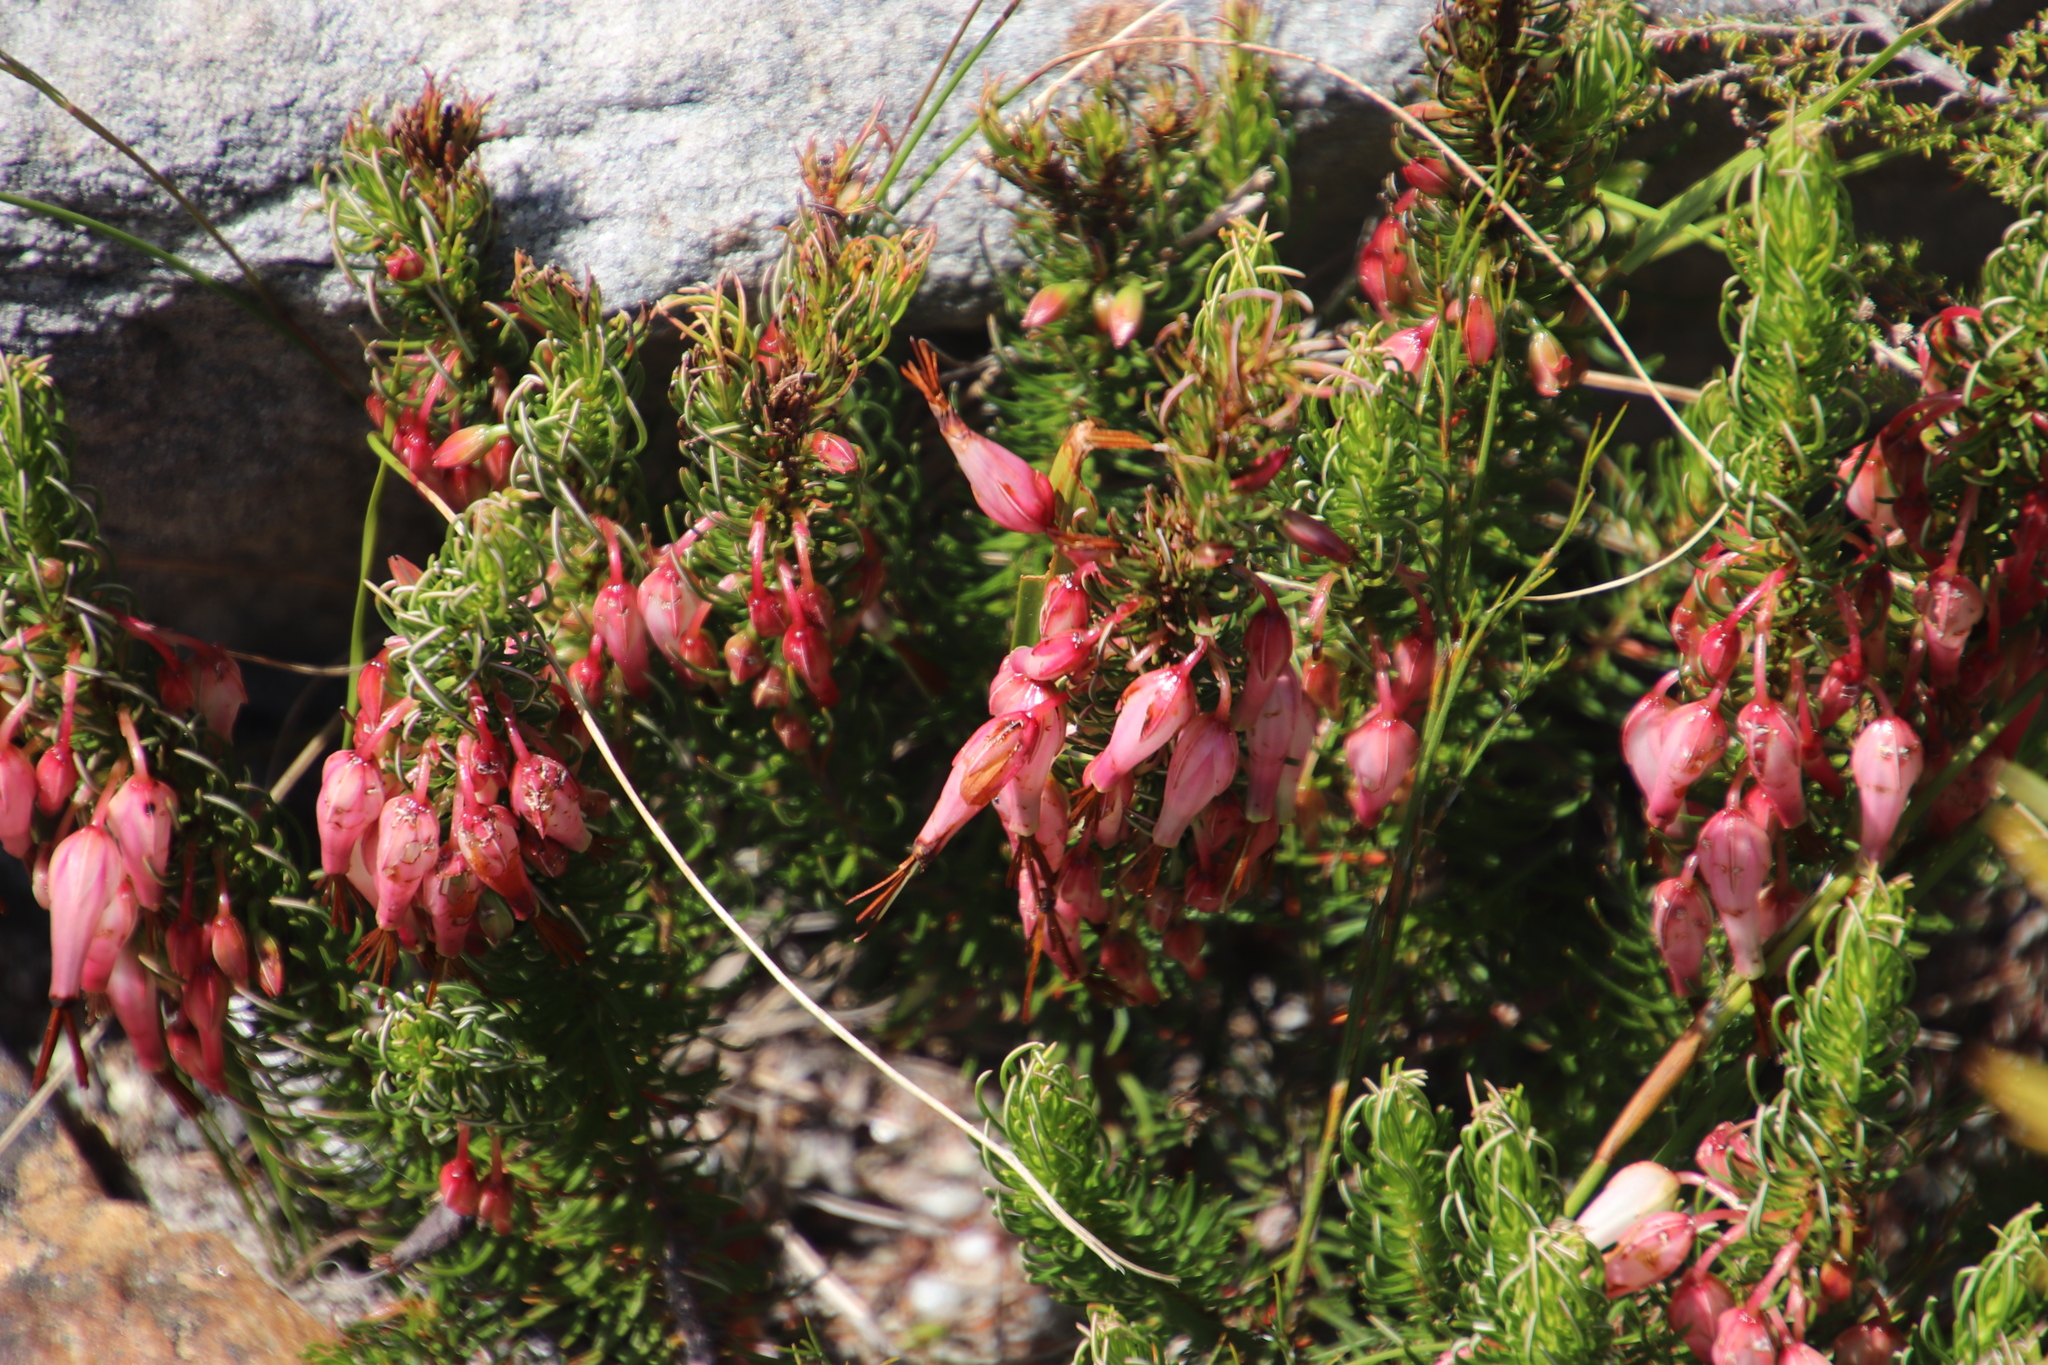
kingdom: Plantae
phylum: Tracheophyta
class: Magnoliopsida
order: Ericales
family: Ericaceae
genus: Erica
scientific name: Erica plukenetii
